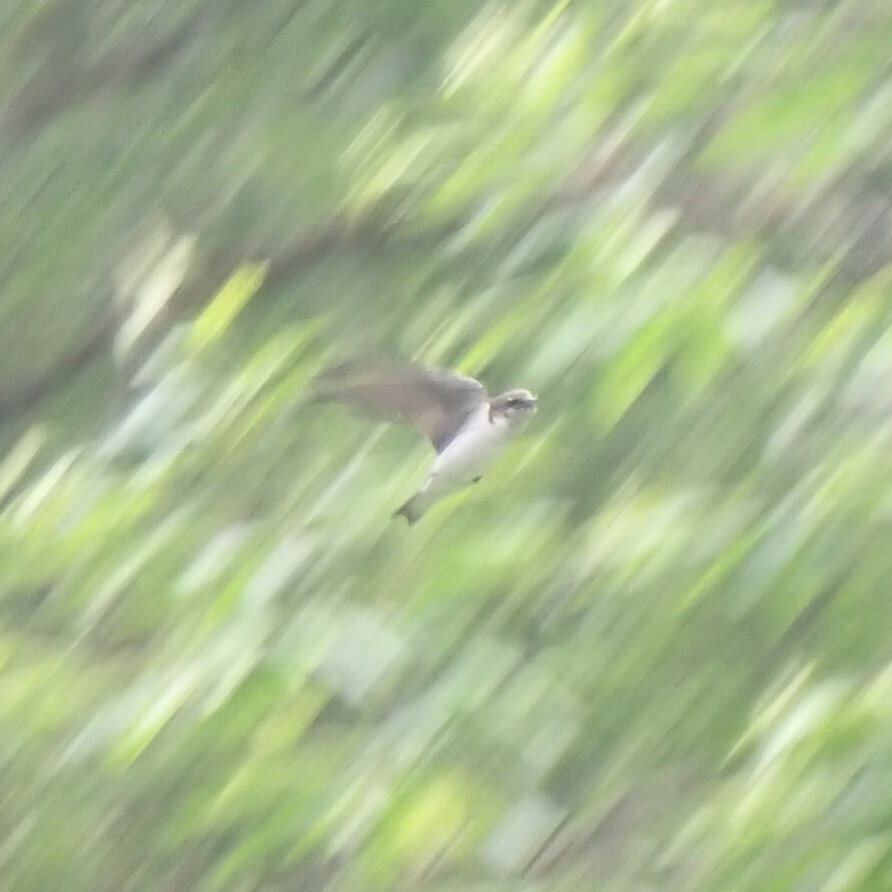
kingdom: Animalia
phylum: Chordata
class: Aves
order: Passeriformes
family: Hirundinidae
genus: Tachycineta
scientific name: Tachycineta thalassina
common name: Violet-green swallow
